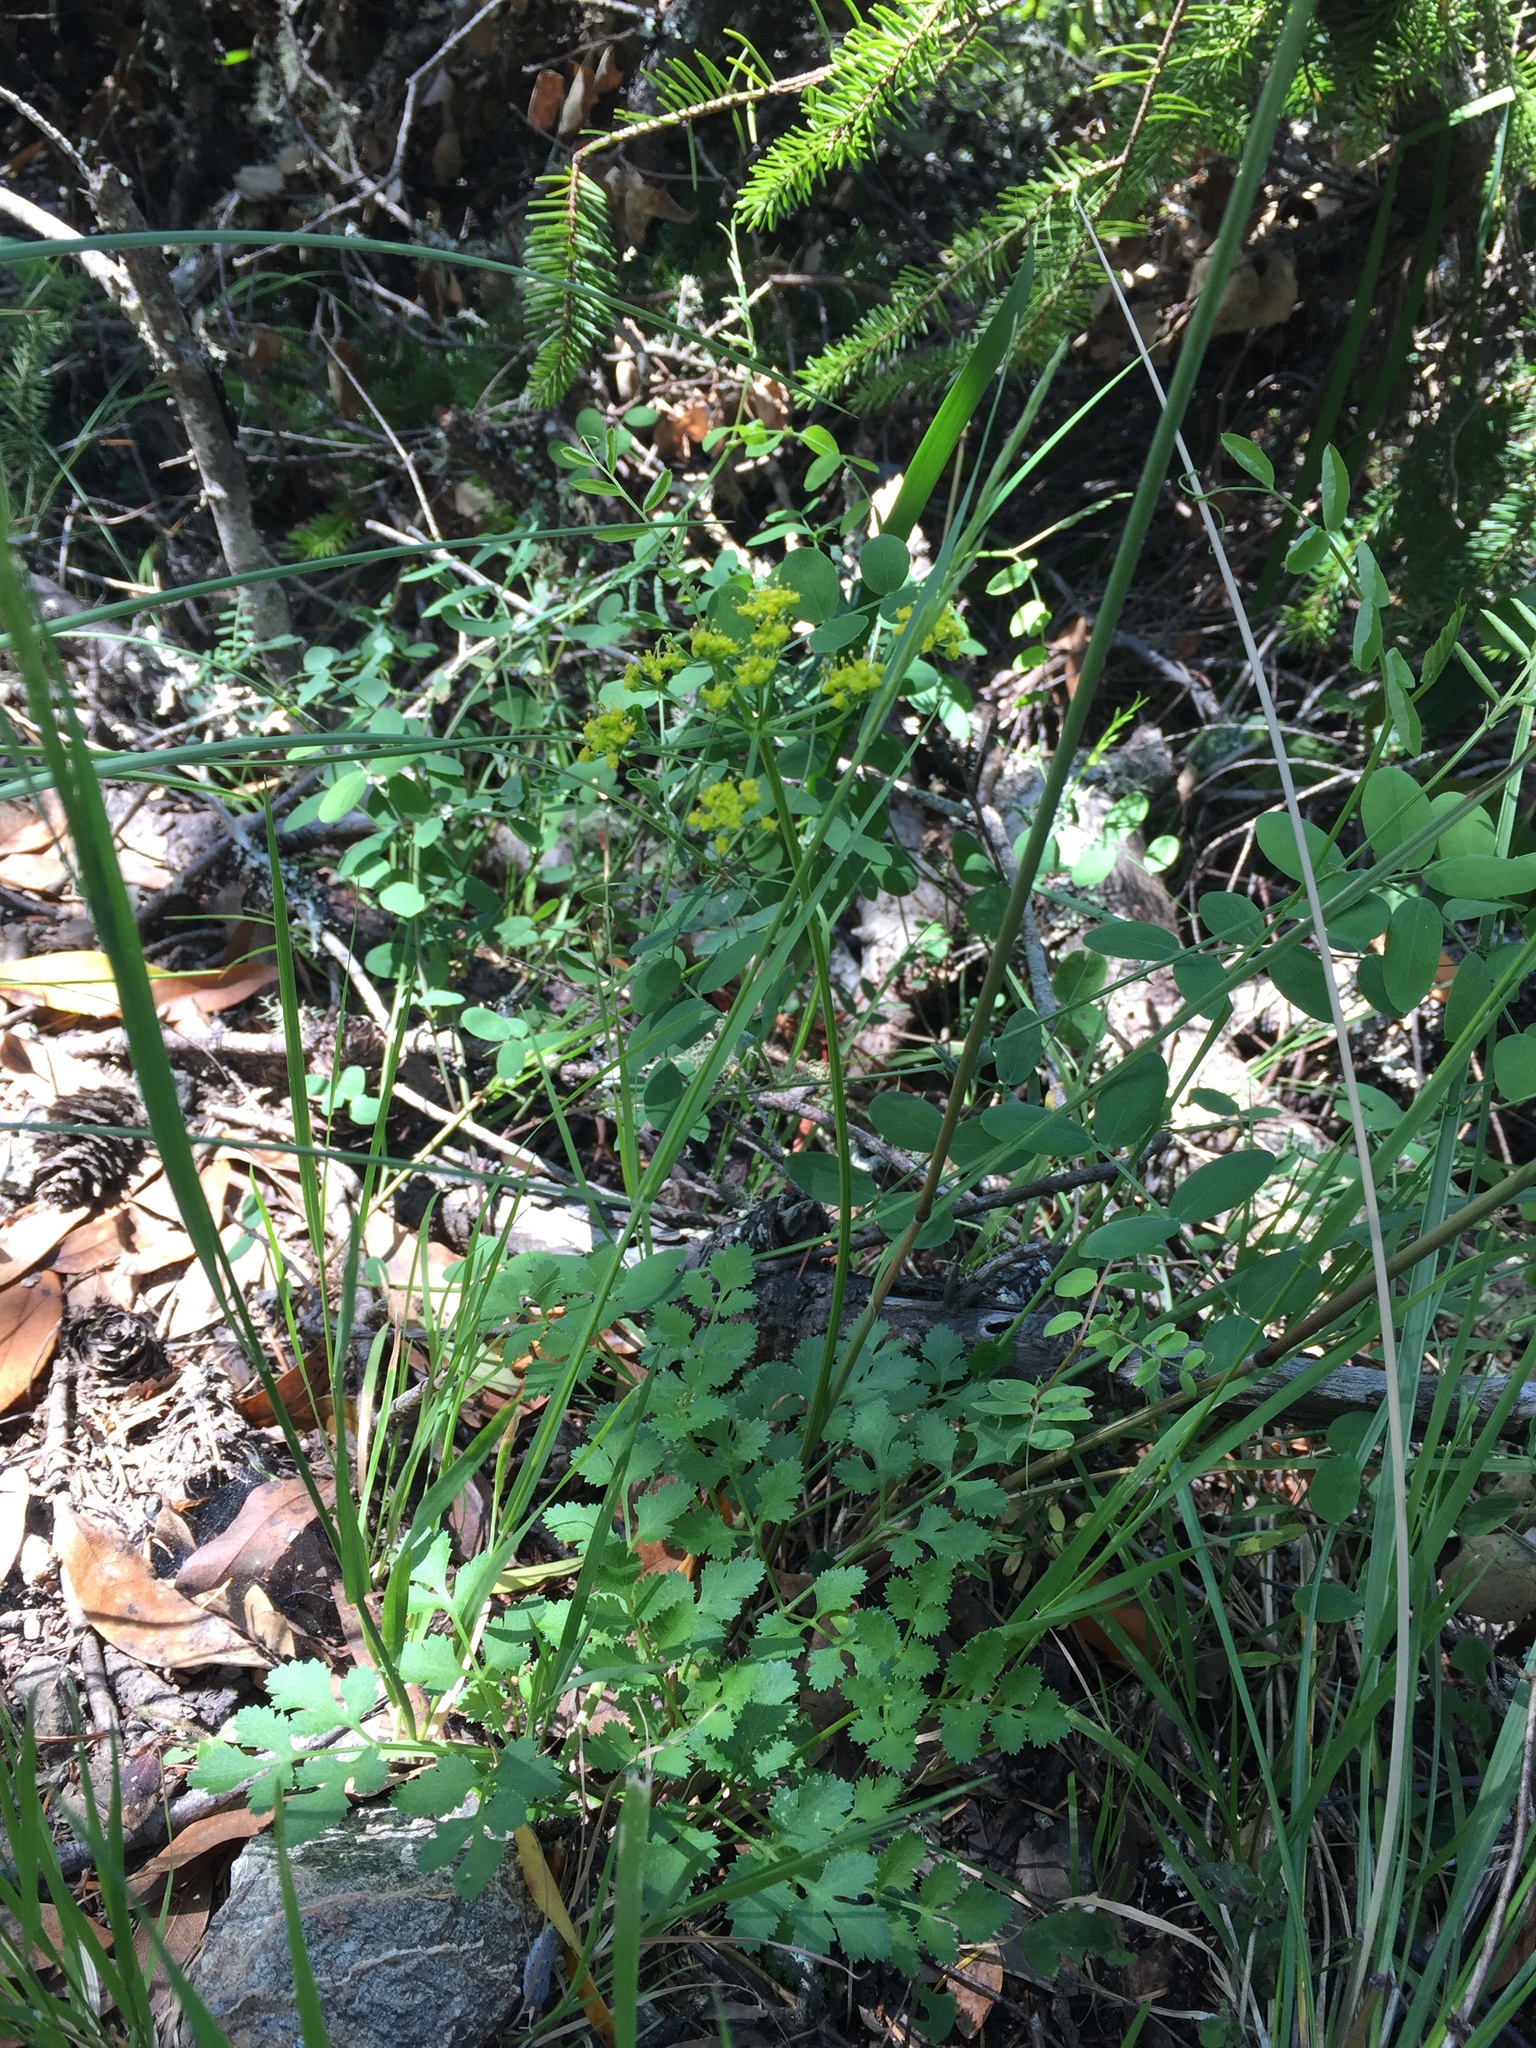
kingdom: Plantae
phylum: Tracheophyta
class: Magnoliopsida
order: Apiales
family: Apiaceae
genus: Tauschia
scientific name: Tauschia kelloggii
